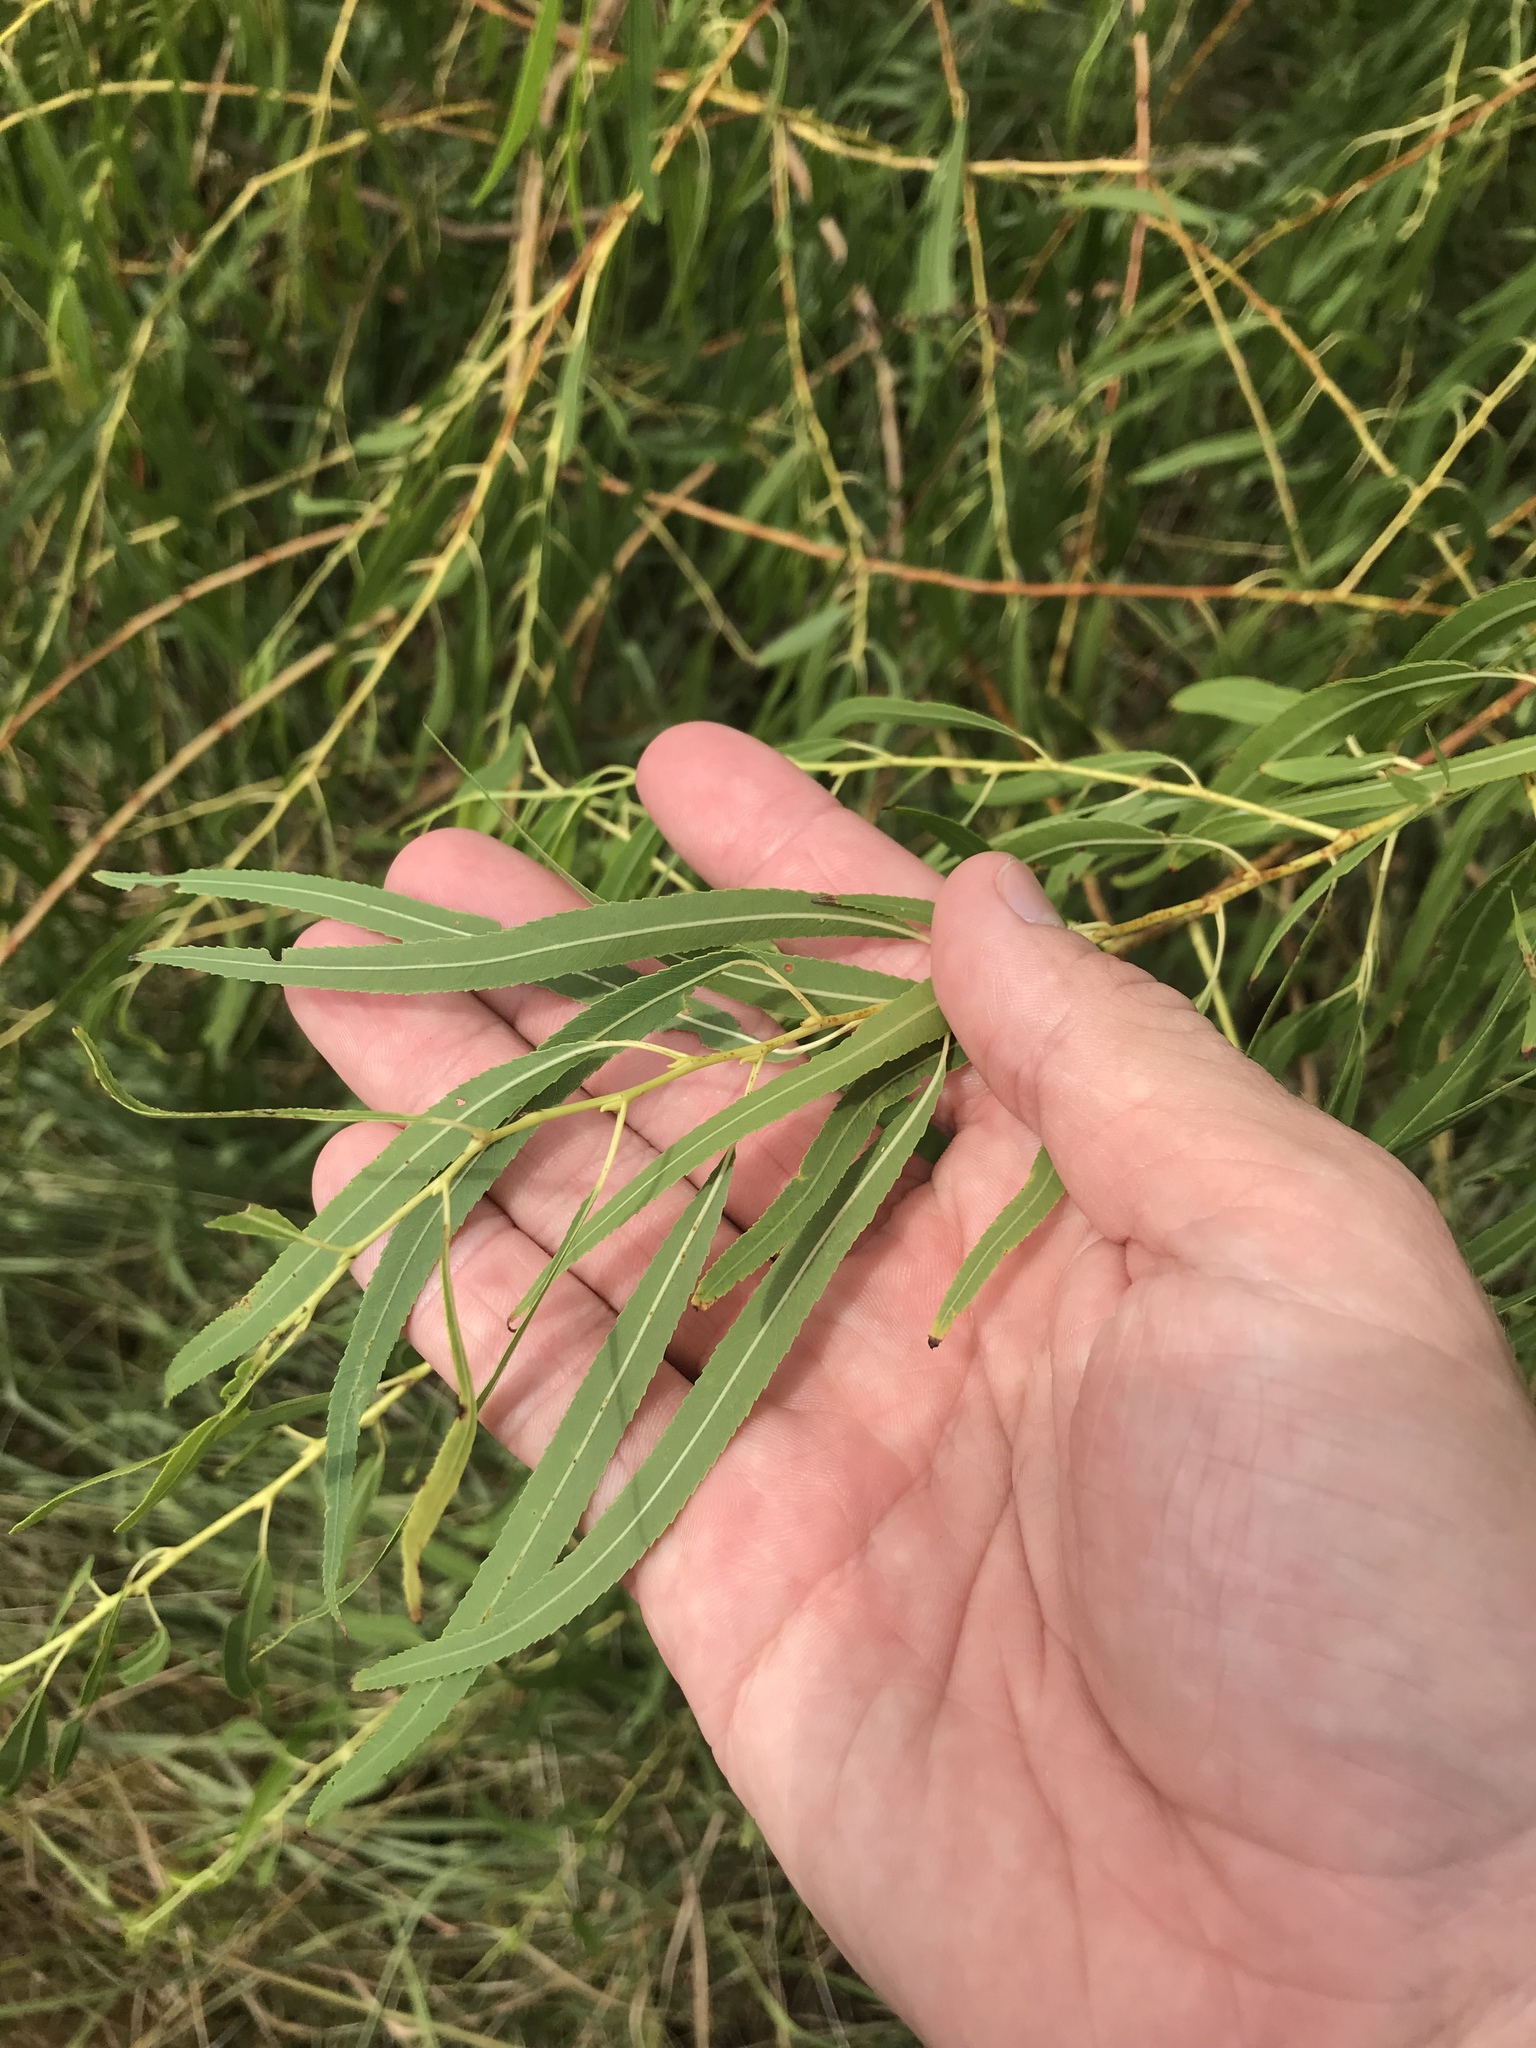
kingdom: Plantae
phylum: Tracheophyta
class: Magnoliopsida
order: Malpighiales
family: Salicaceae
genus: Salix
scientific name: Salix nigra
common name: Black willow
